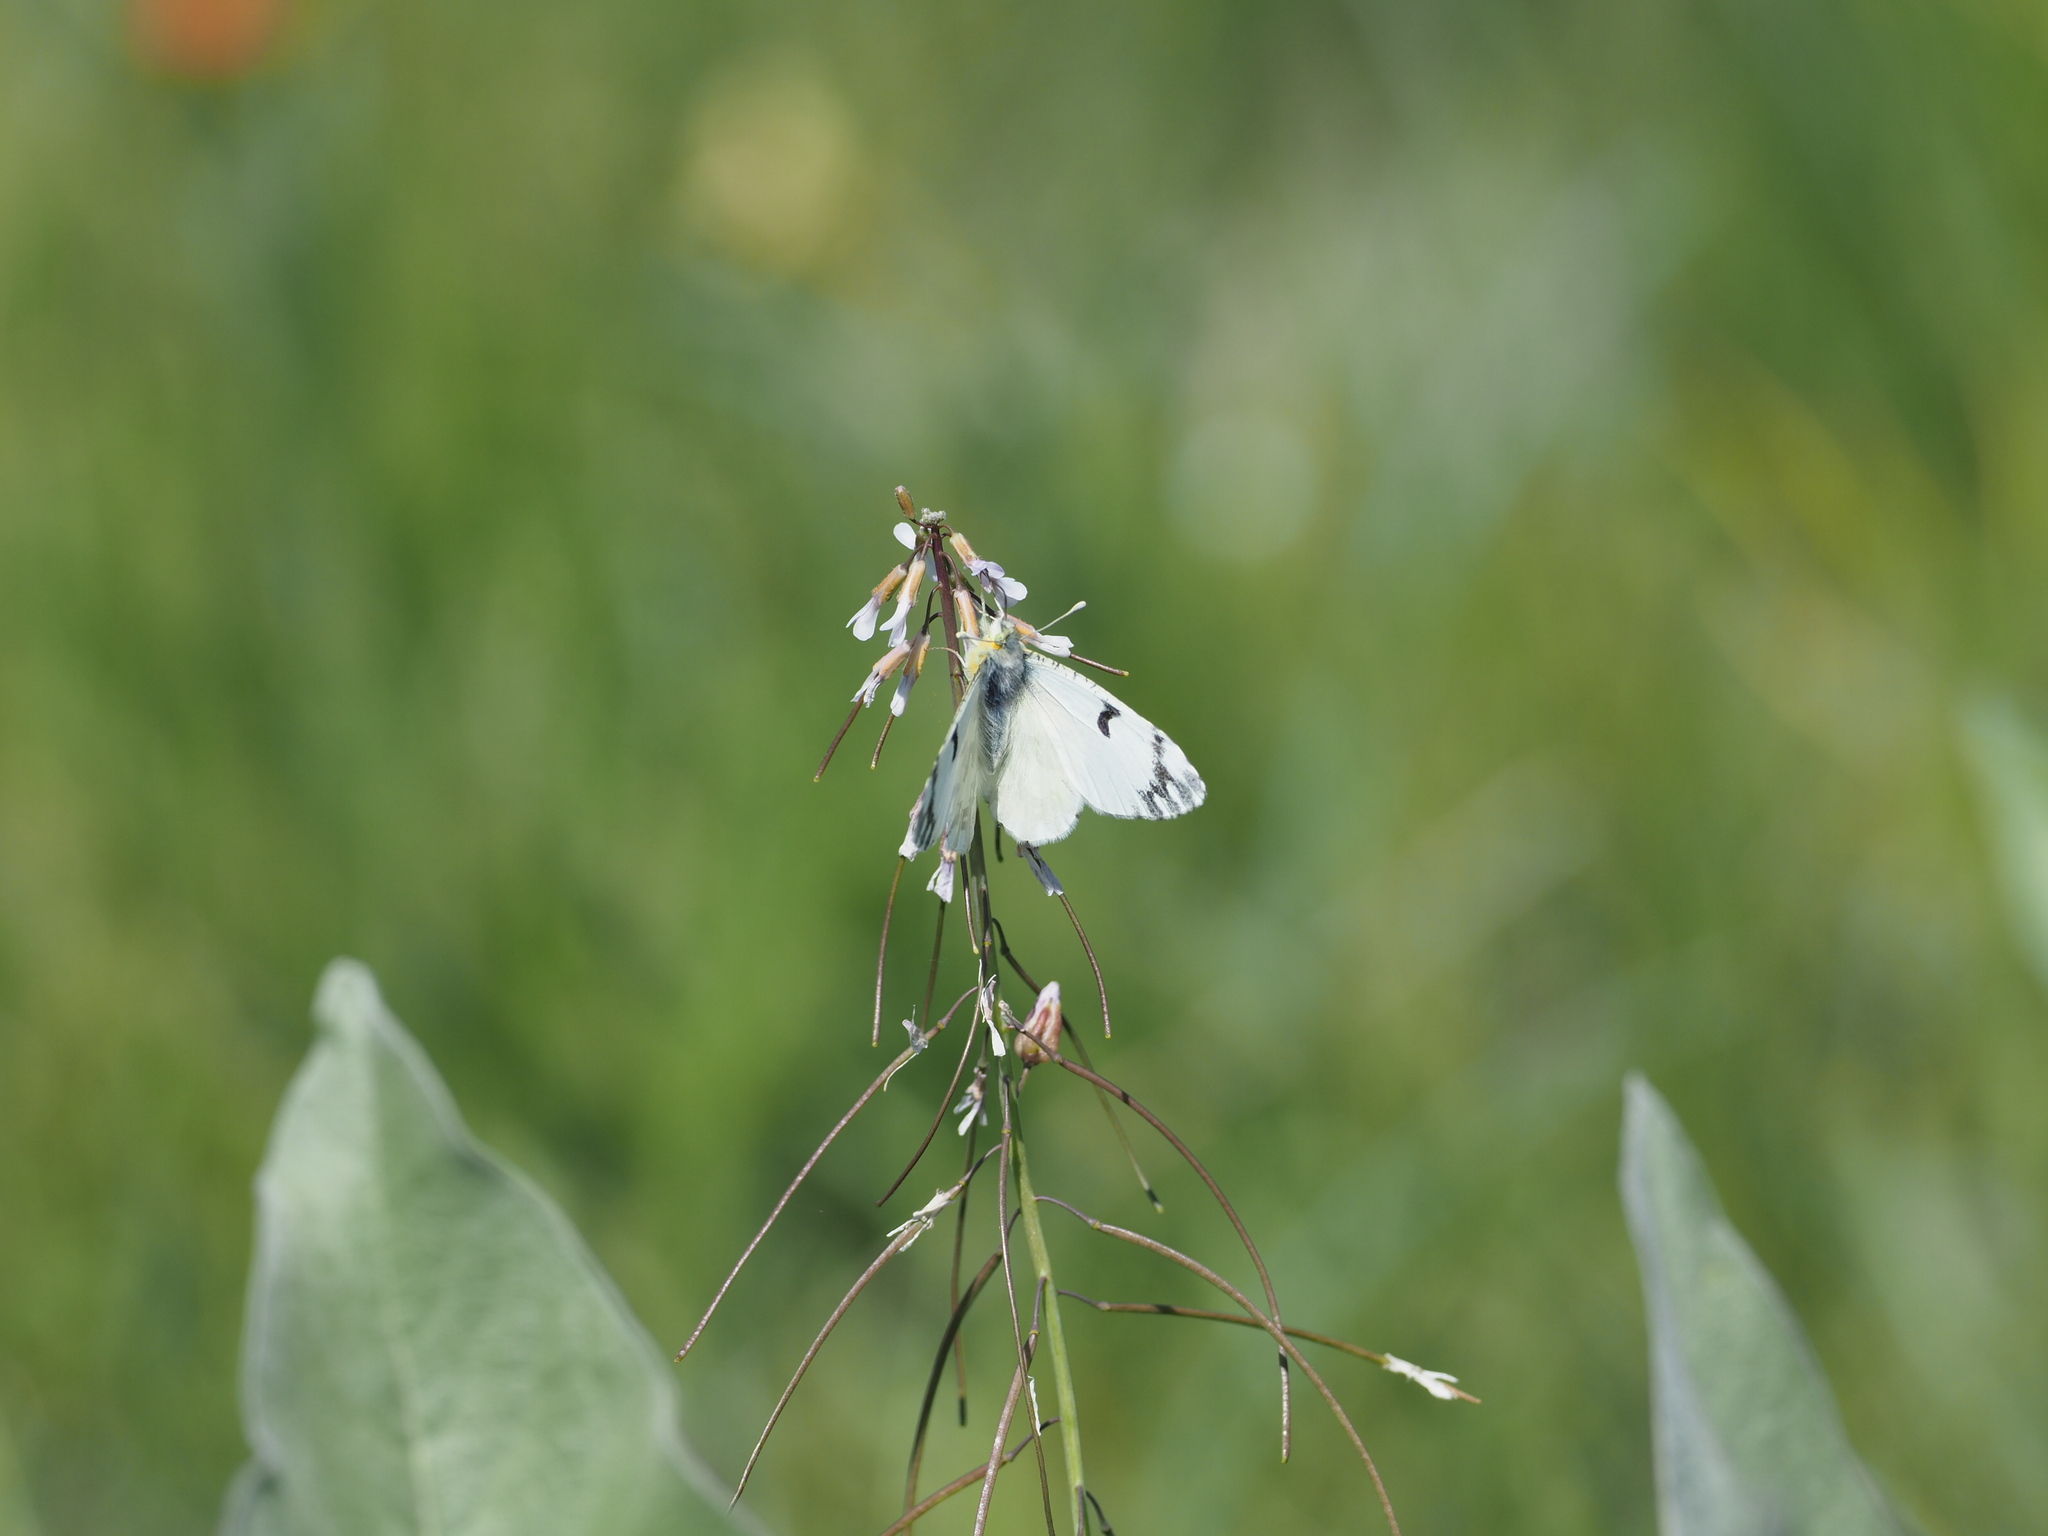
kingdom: Animalia
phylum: Arthropoda
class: Insecta
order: Lepidoptera
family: Pieridae
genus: Euchloe
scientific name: Euchloe ausonides
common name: Creamy marblewing
